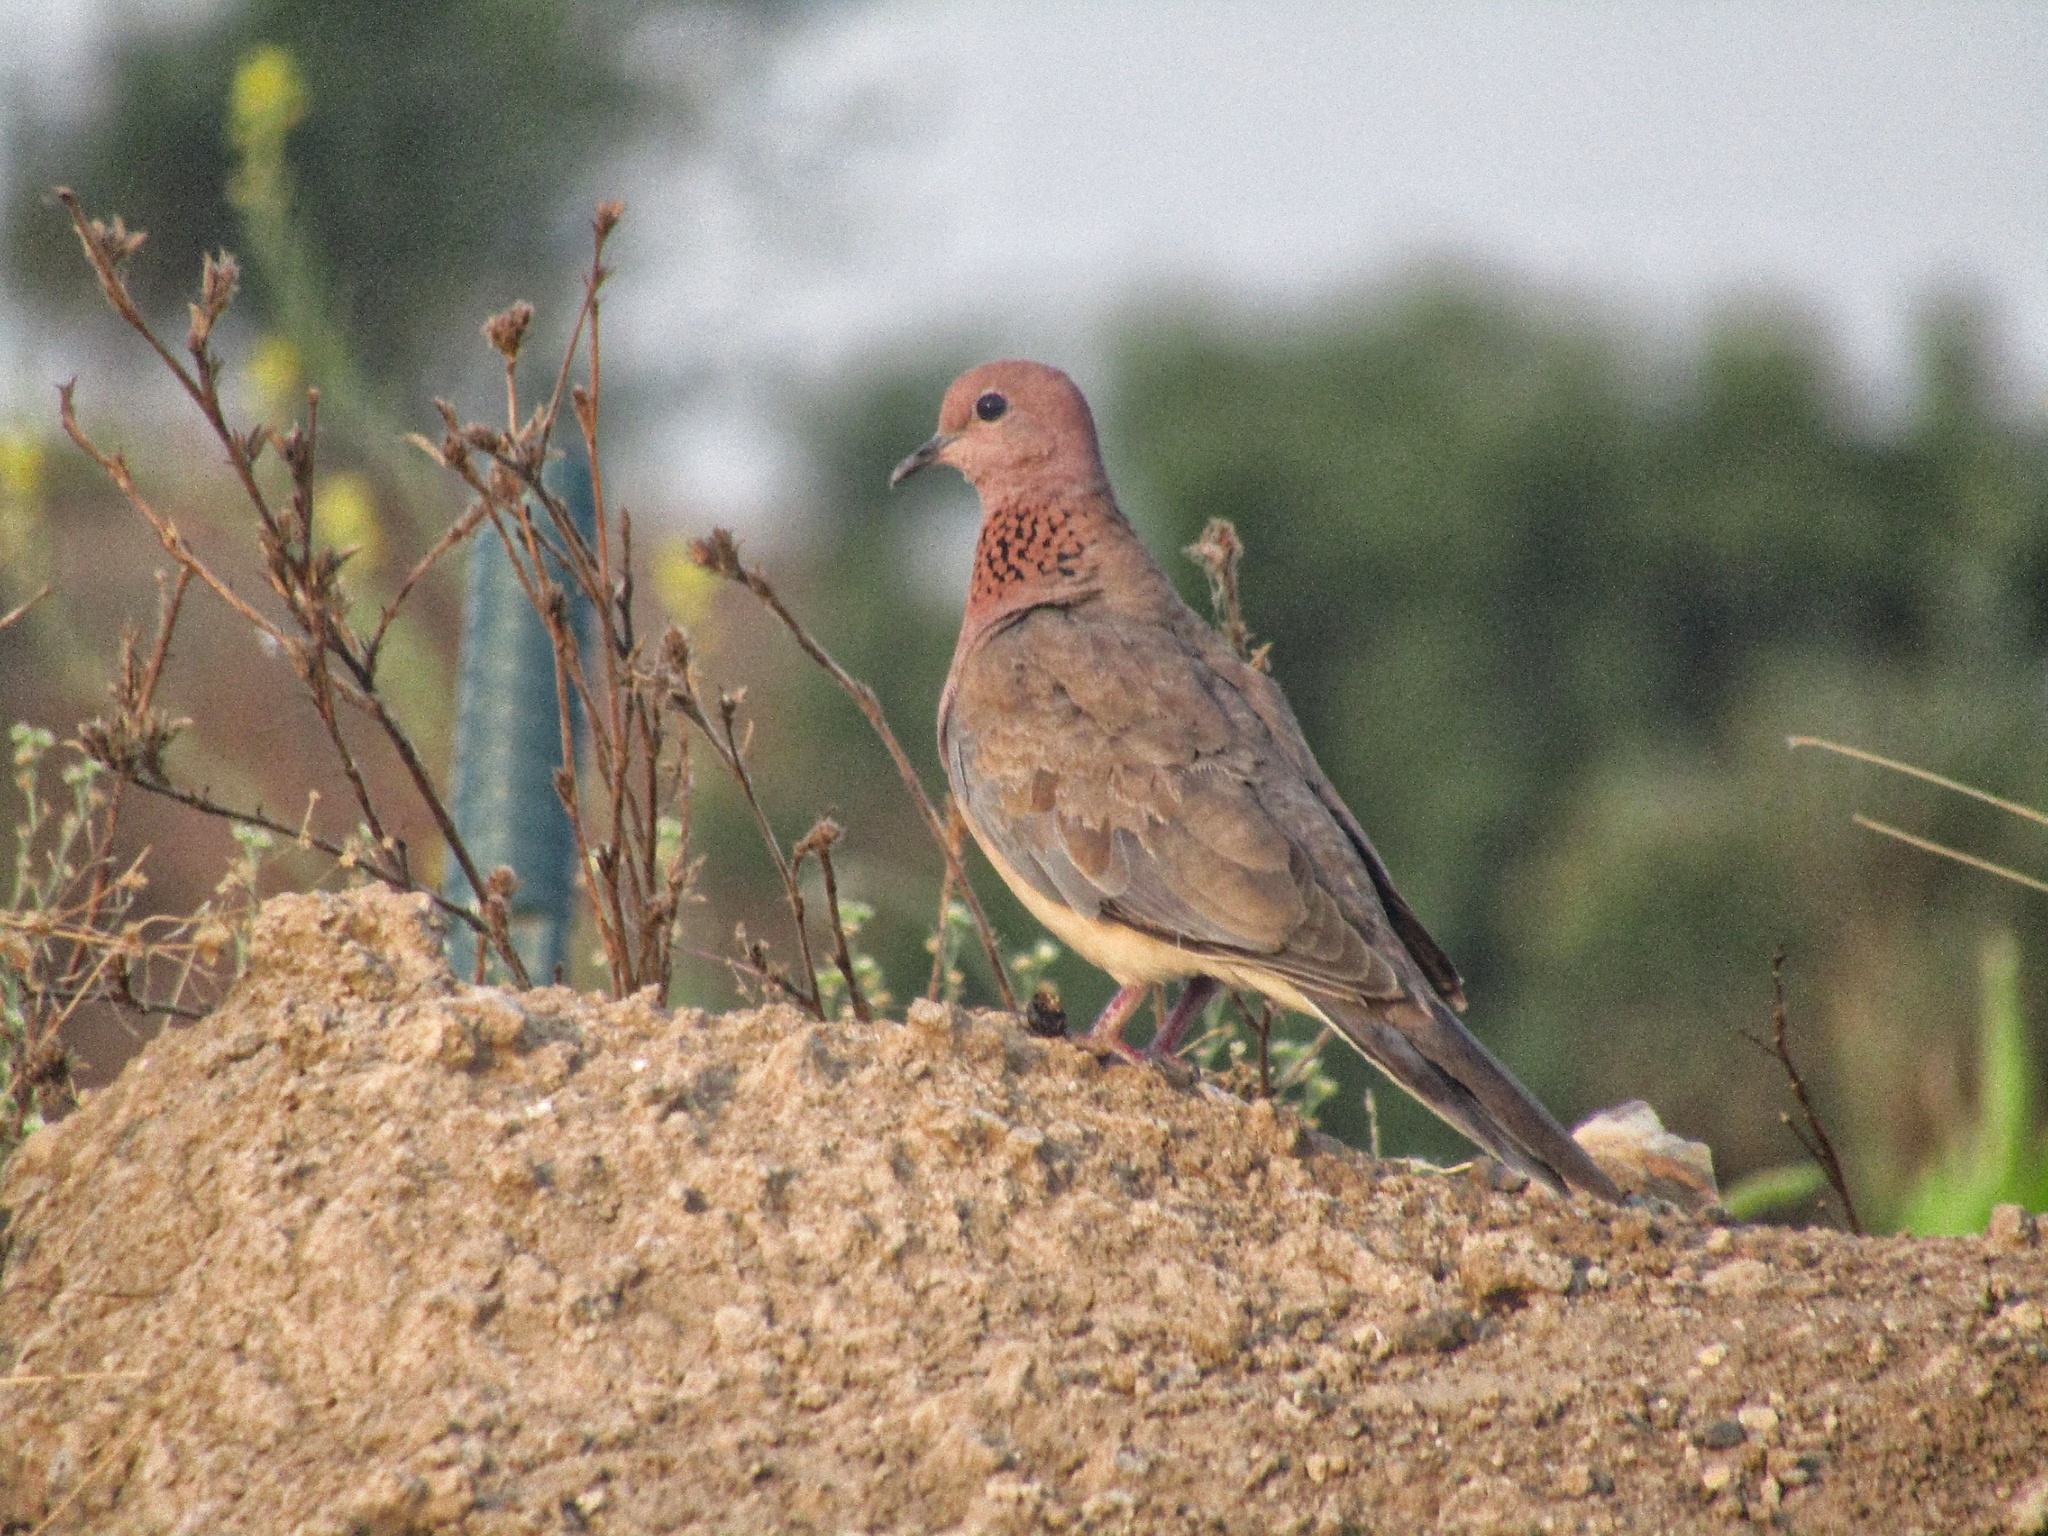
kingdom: Animalia
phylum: Chordata
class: Aves
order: Columbiformes
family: Columbidae
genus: Spilopelia
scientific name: Spilopelia senegalensis
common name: Laughing dove
